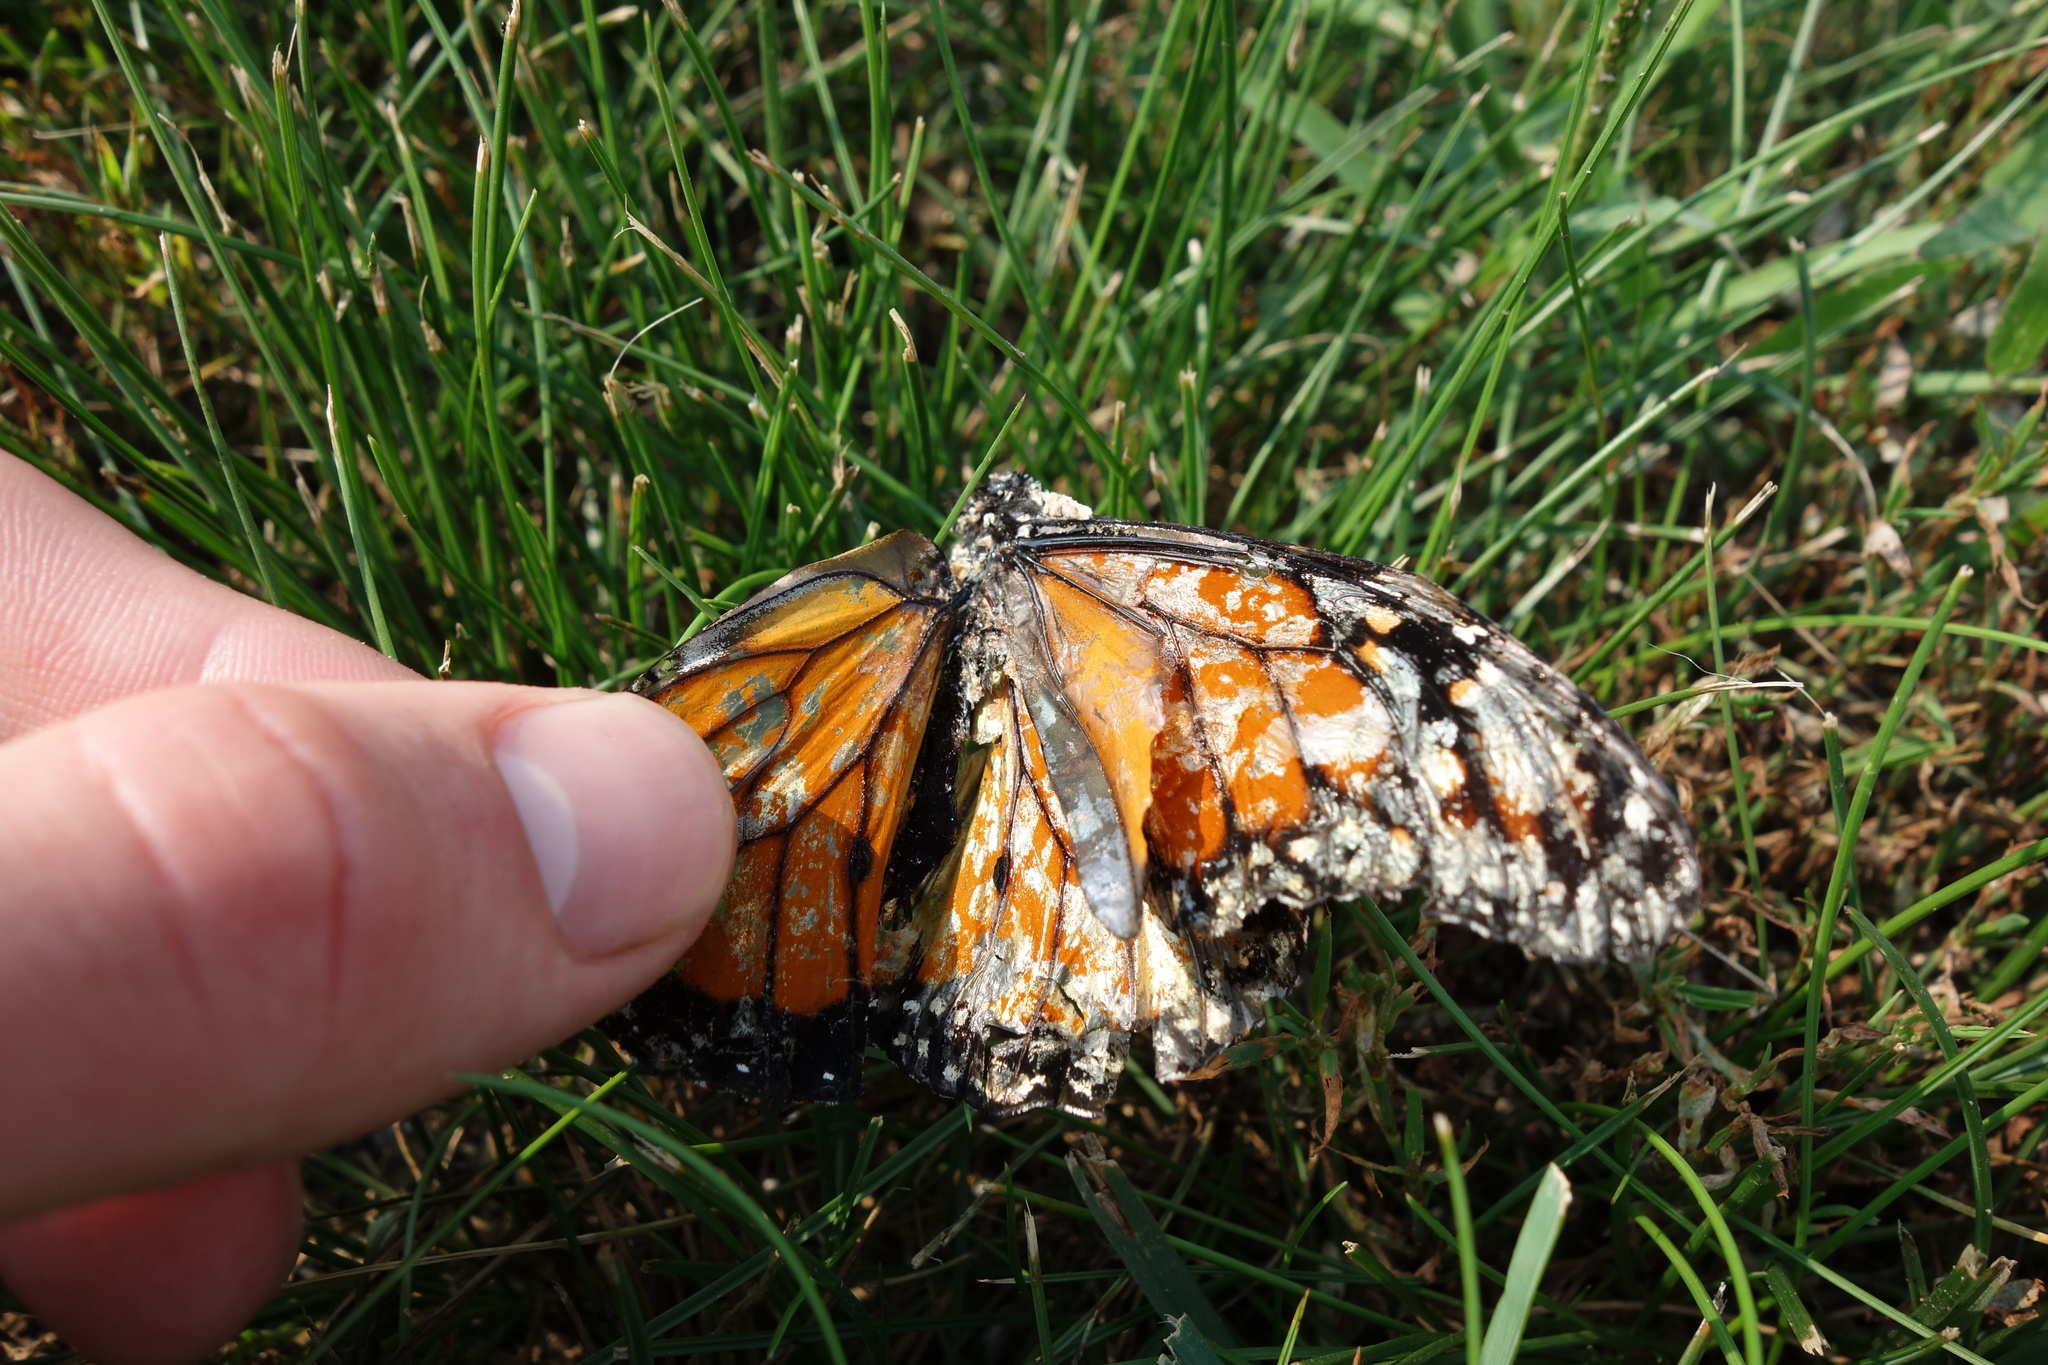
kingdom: Animalia
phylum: Arthropoda
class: Insecta
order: Lepidoptera
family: Nymphalidae
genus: Danaus
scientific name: Danaus plexippus
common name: Monarch
